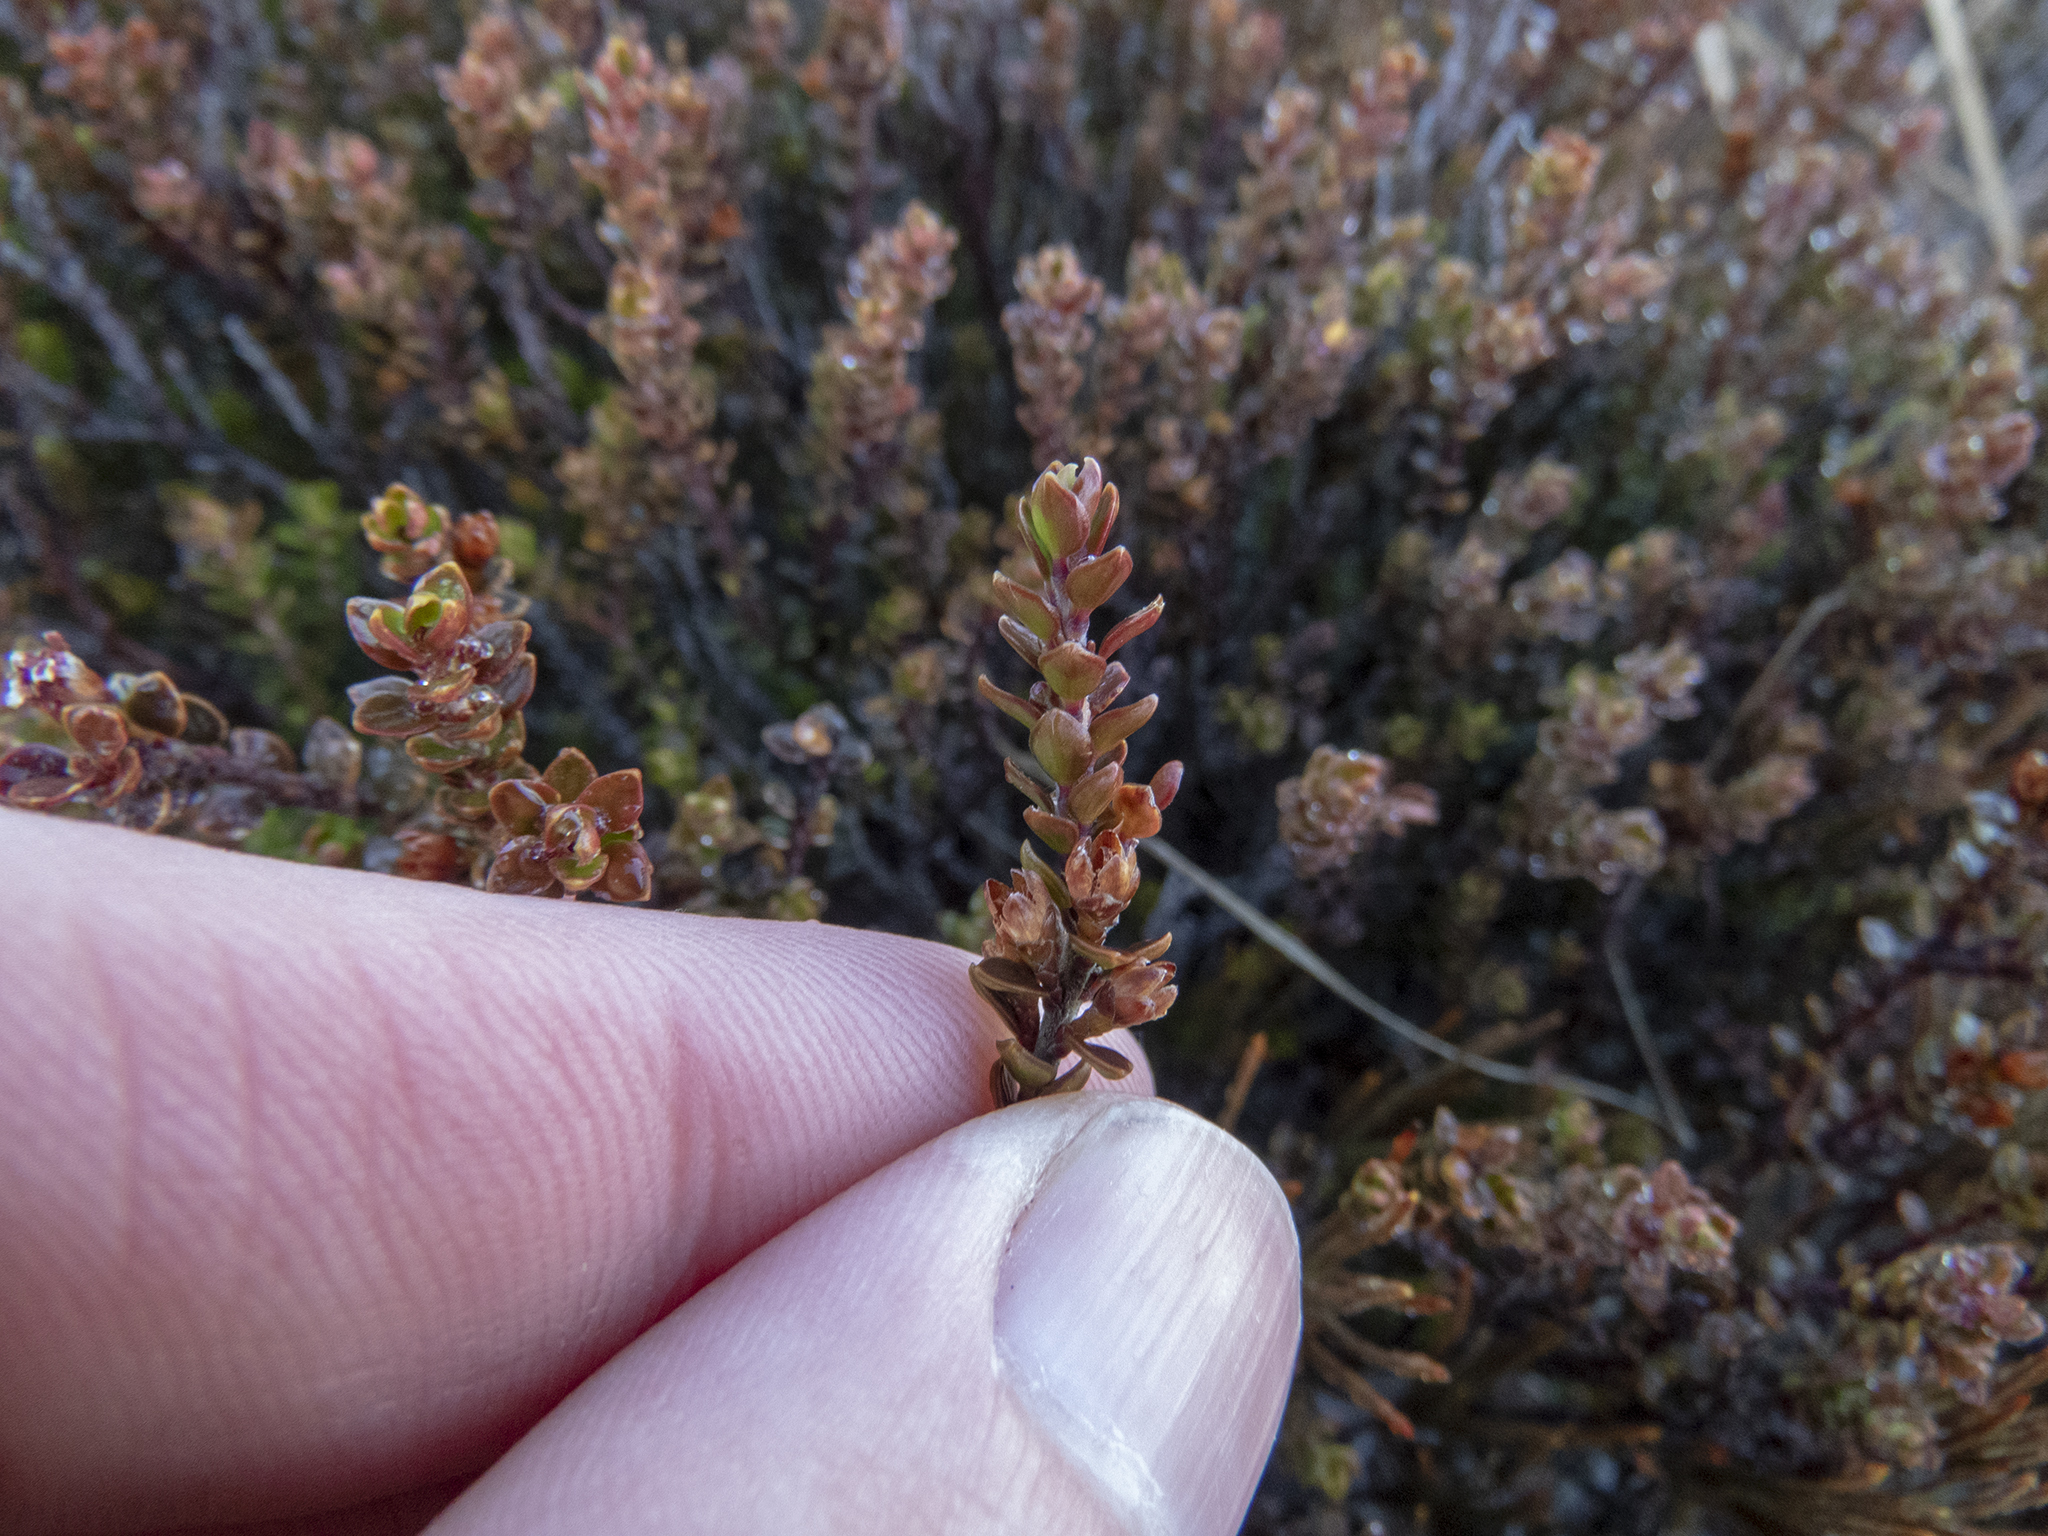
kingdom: Plantae
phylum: Tracheophyta
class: Magnoliopsida
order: Ericales
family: Ericaceae
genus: Epacris
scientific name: Epacris alpina
